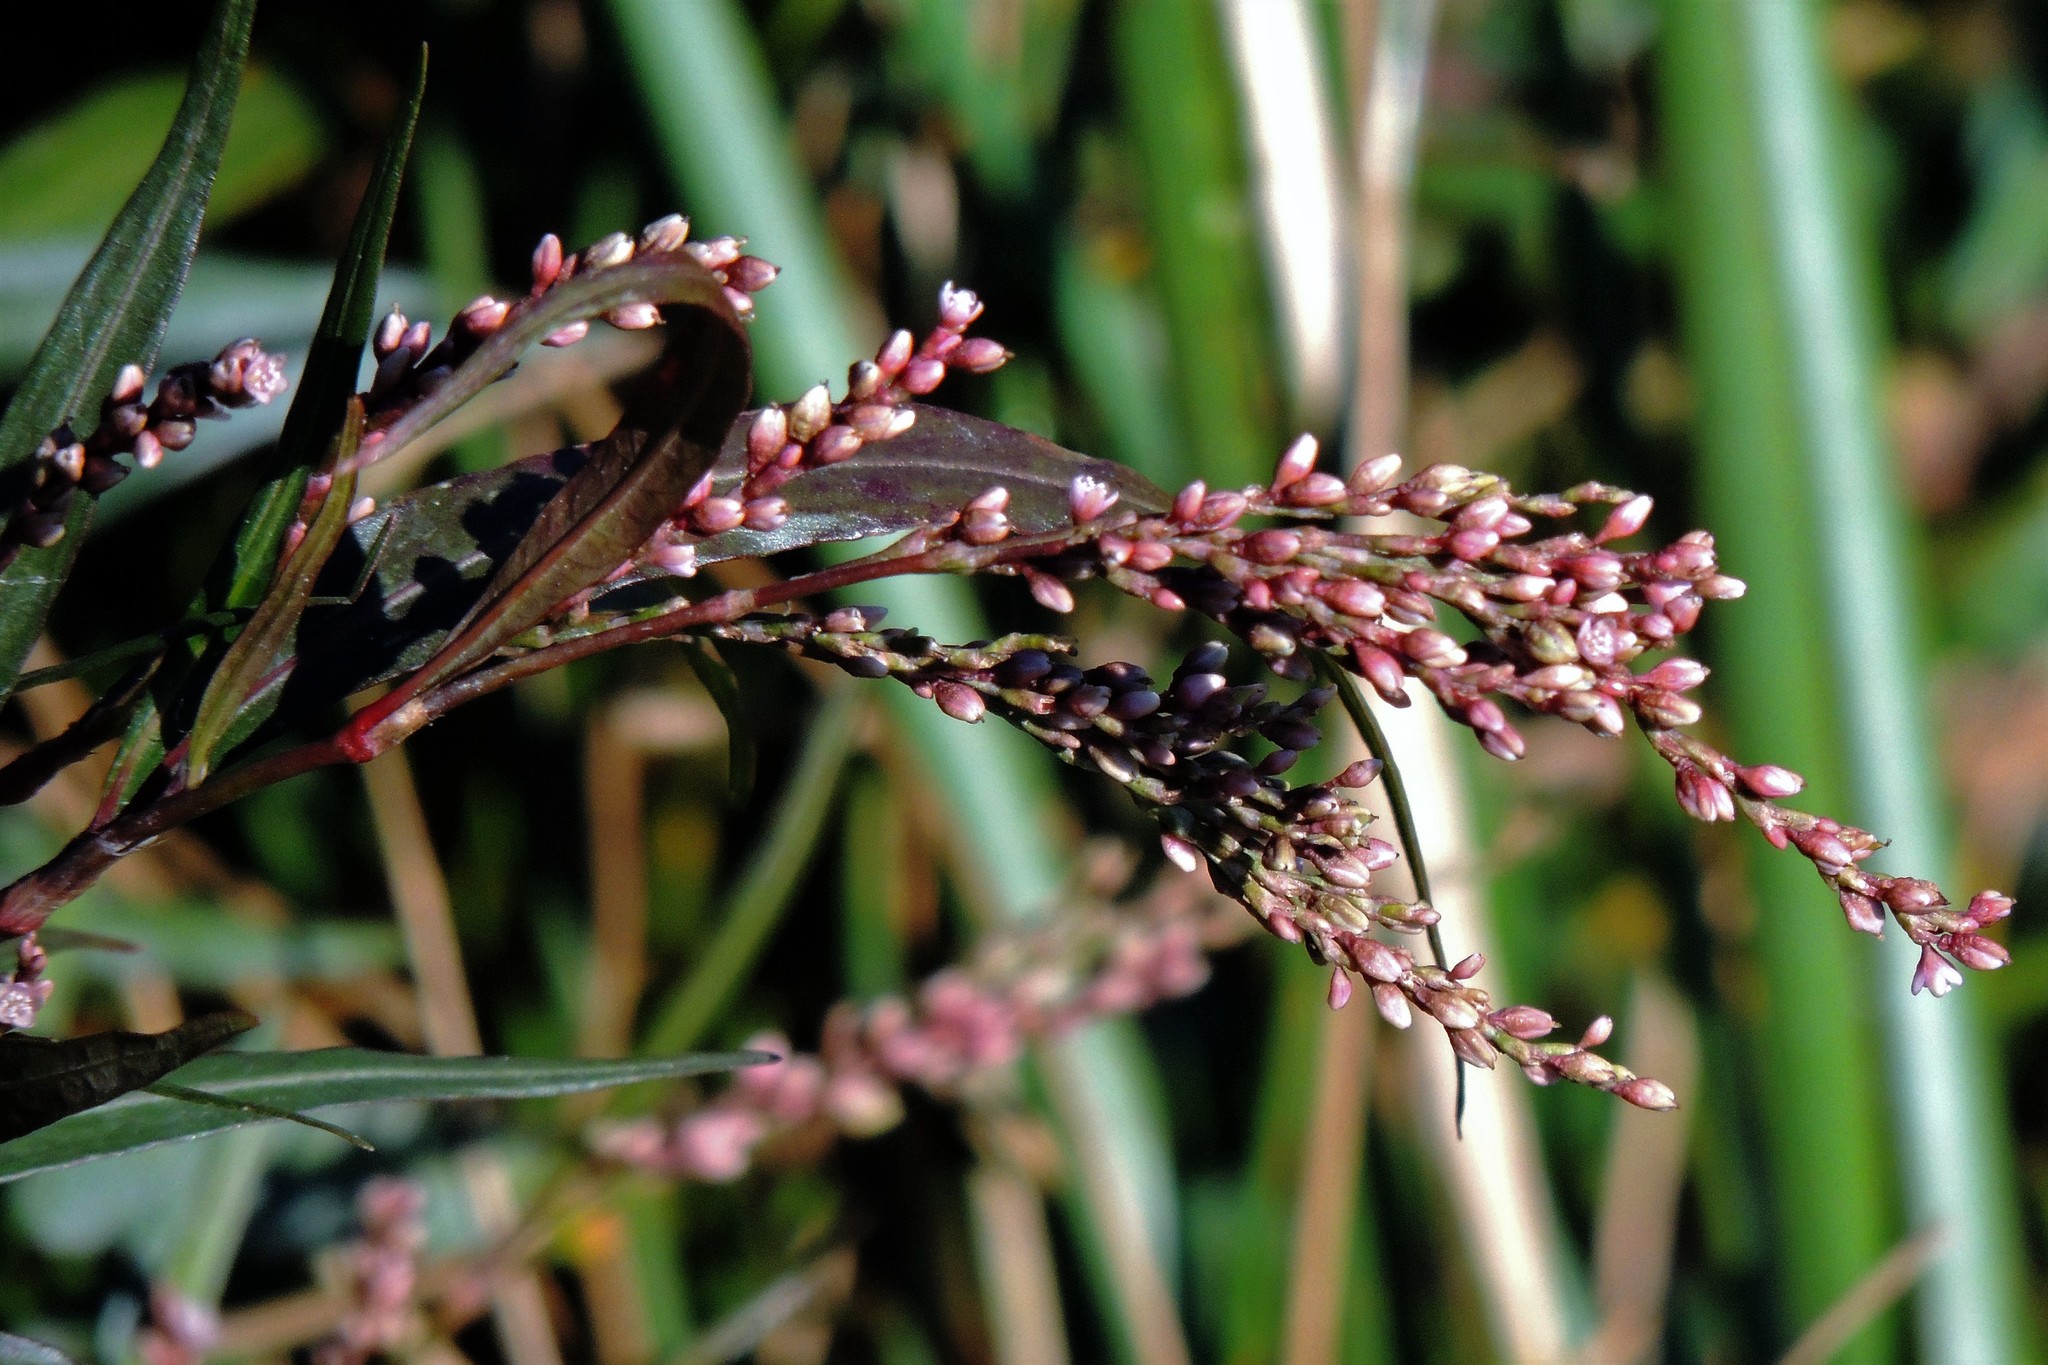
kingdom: Plantae
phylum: Tracheophyta
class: Magnoliopsida
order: Caryophyllales
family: Polygonaceae
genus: Persicaria
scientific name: Persicaria punctata
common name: Dotted smartweed
